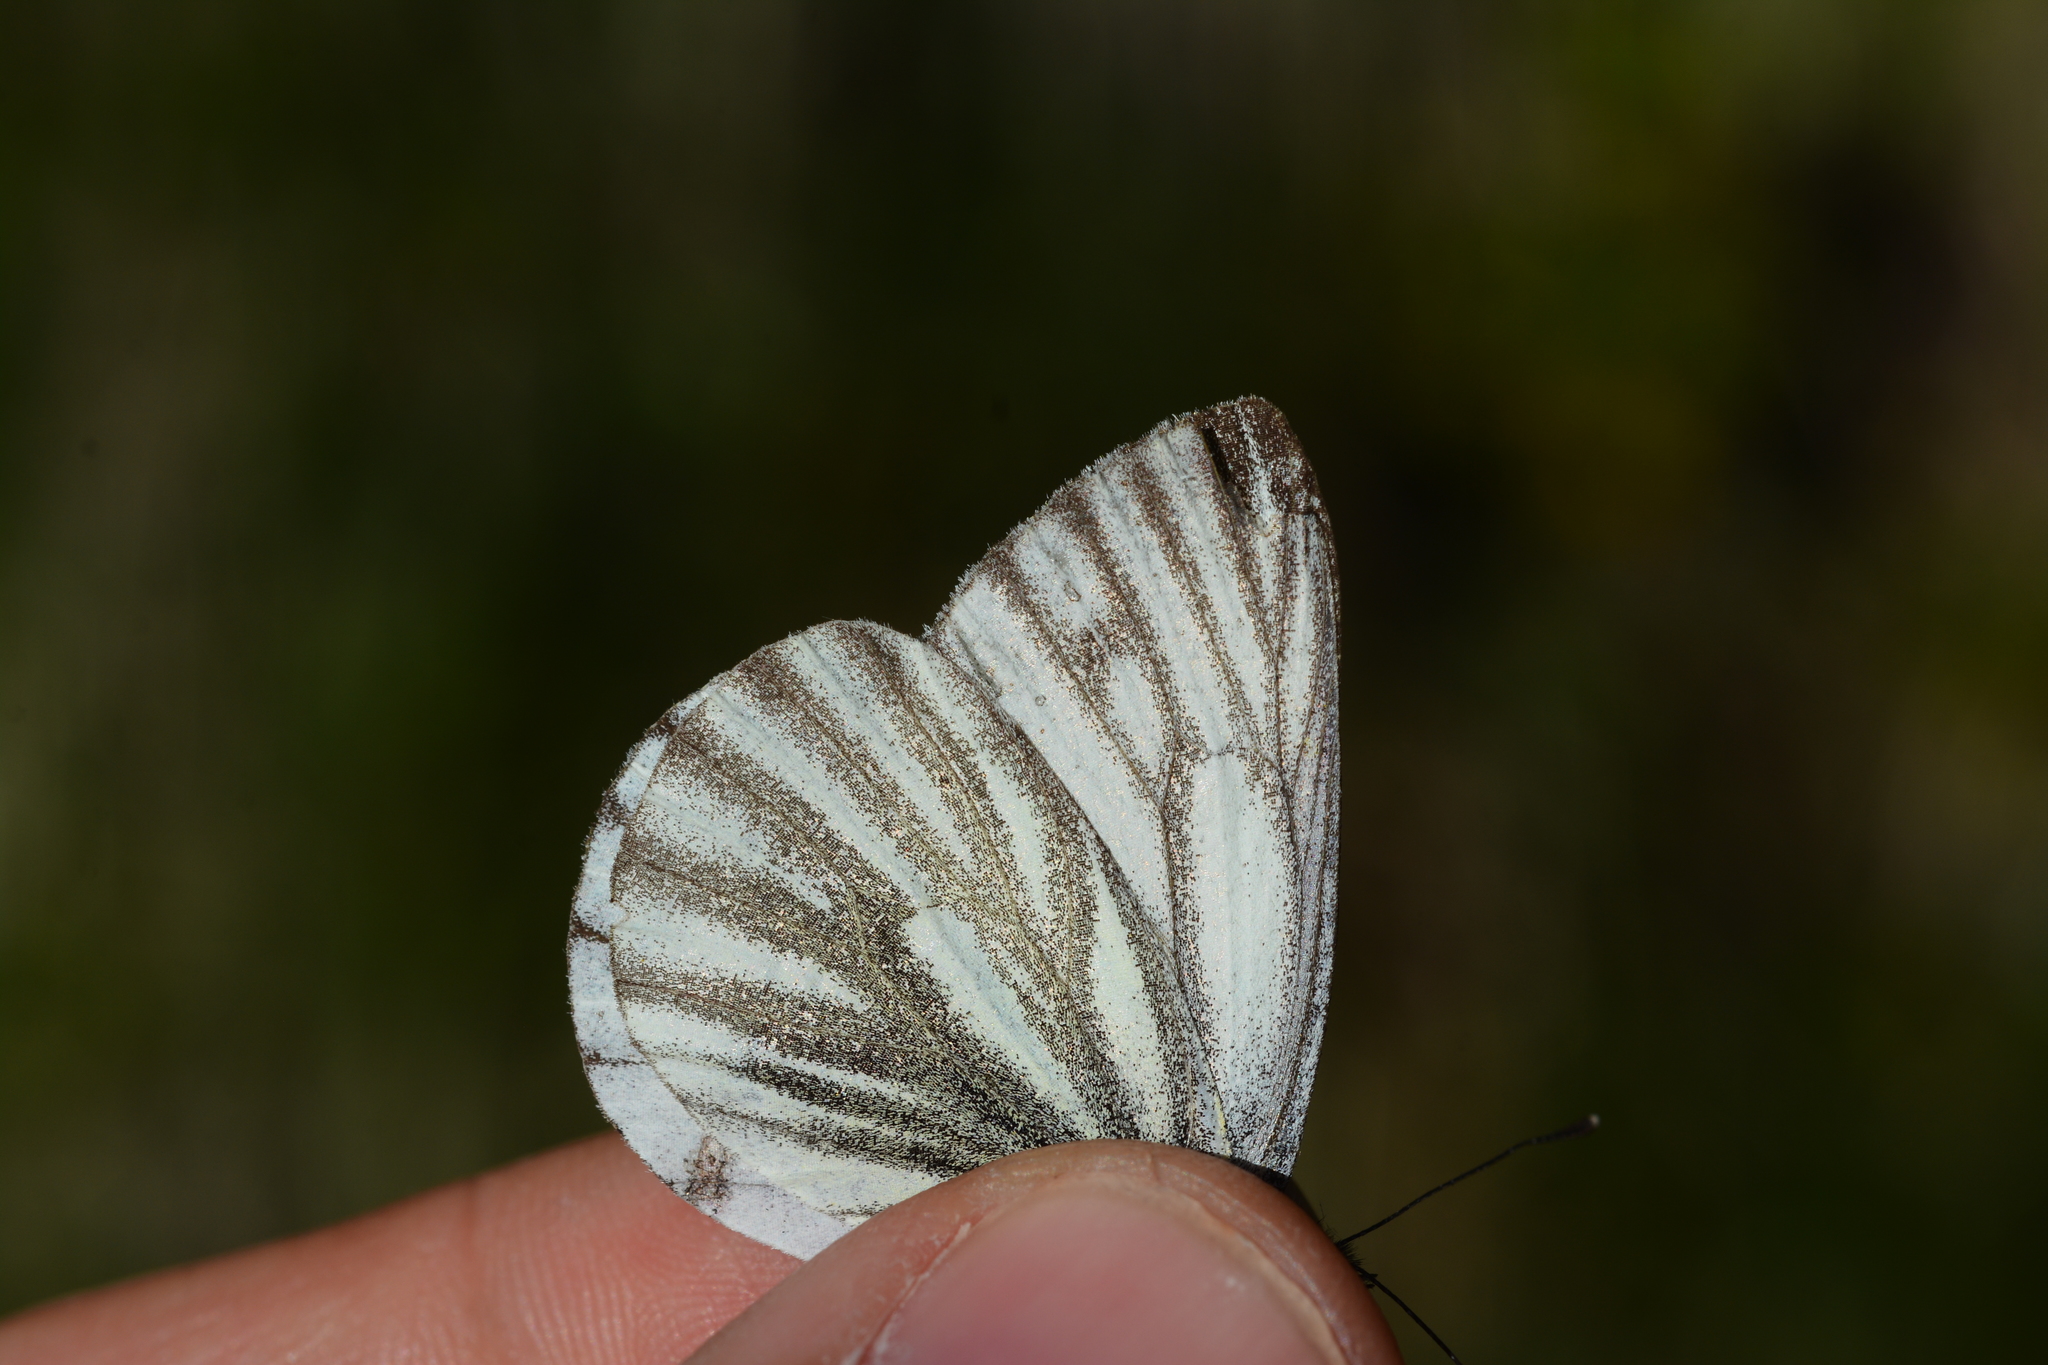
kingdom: Animalia
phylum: Arthropoda
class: Insecta
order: Lepidoptera
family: Pieridae
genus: Pieris
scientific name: Pieris bryoniae
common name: Mountain green-veined white
